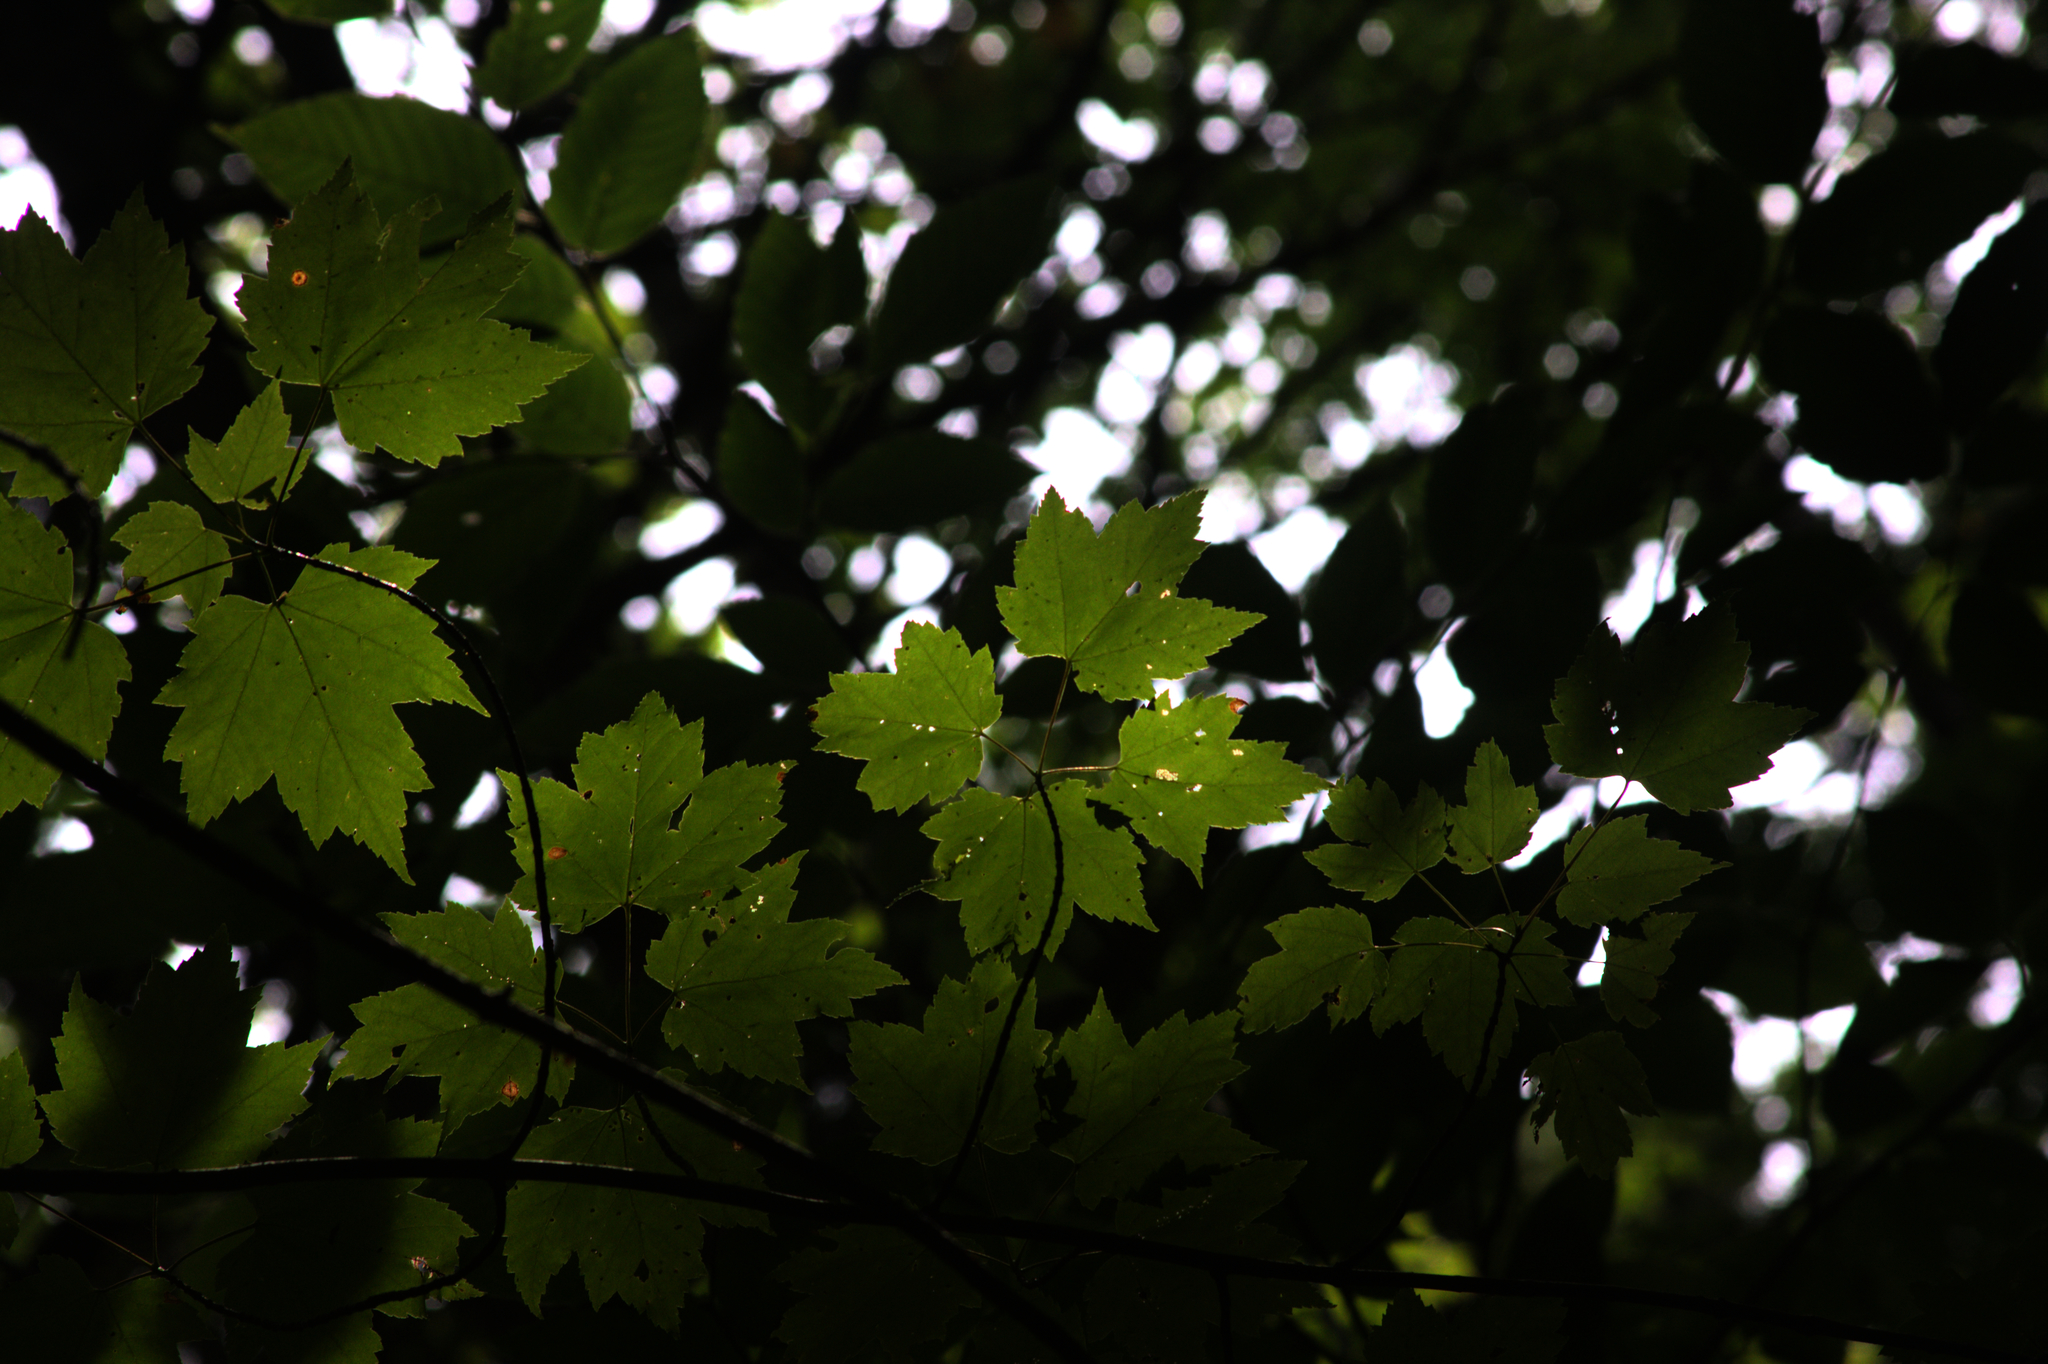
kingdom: Plantae
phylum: Tracheophyta
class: Magnoliopsida
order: Sapindales
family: Sapindaceae
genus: Acer
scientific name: Acer rubrum
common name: Red maple
